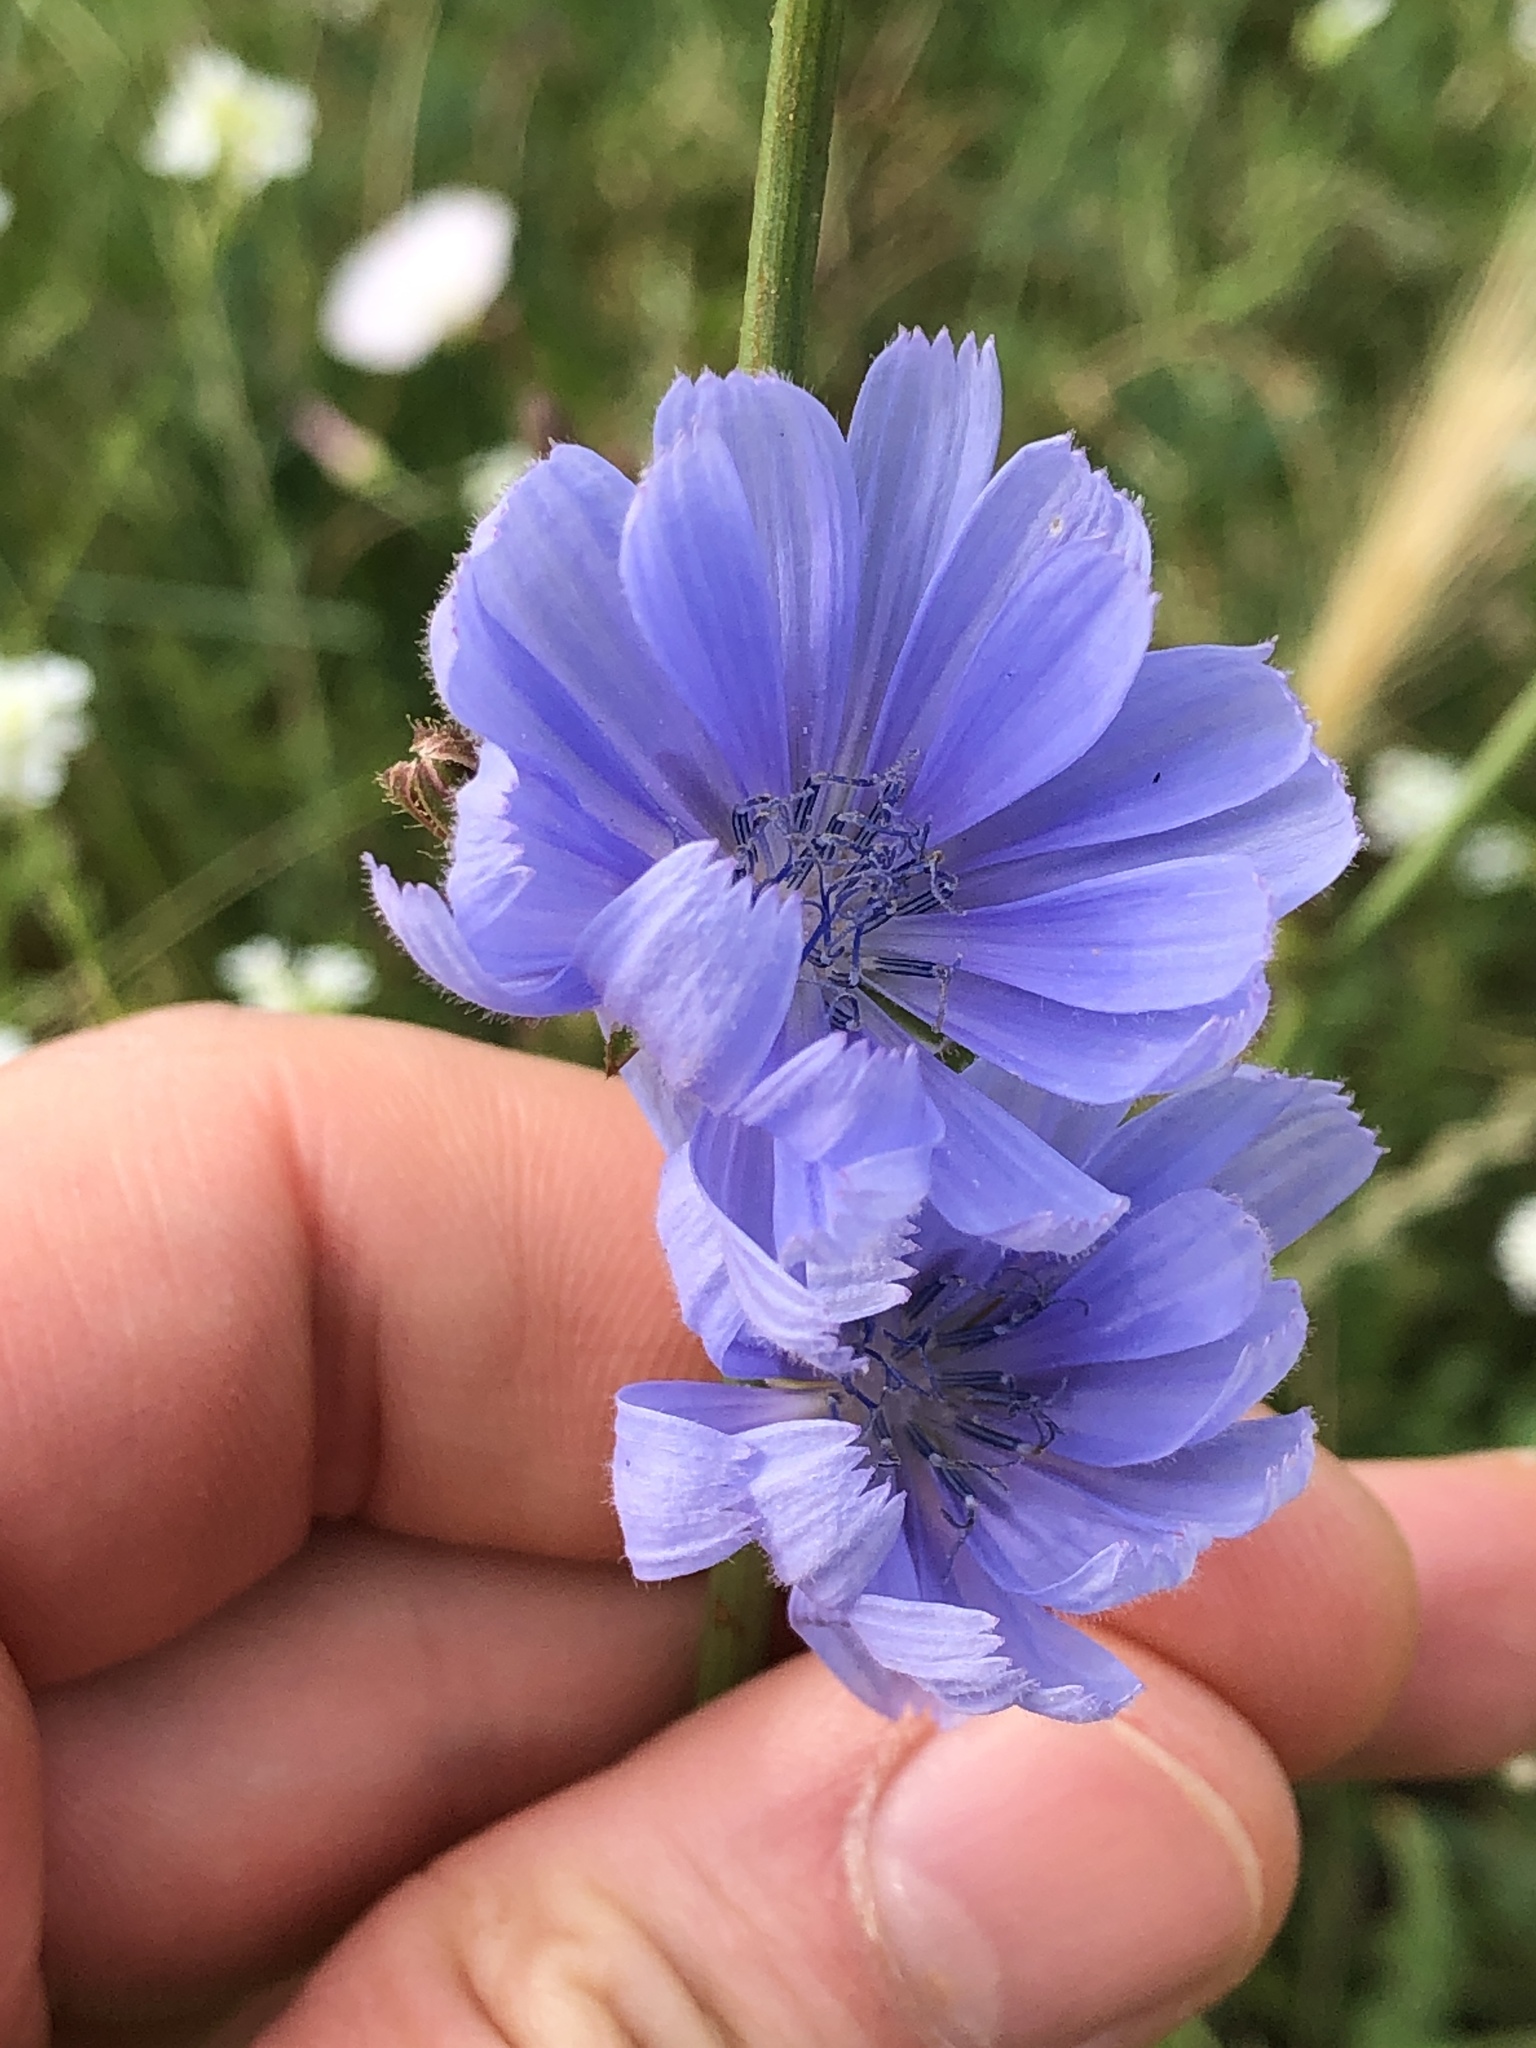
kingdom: Plantae
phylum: Tracheophyta
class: Magnoliopsida
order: Asterales
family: Asteraceae
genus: Cichorium
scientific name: Cichorium intybus
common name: Chicory
